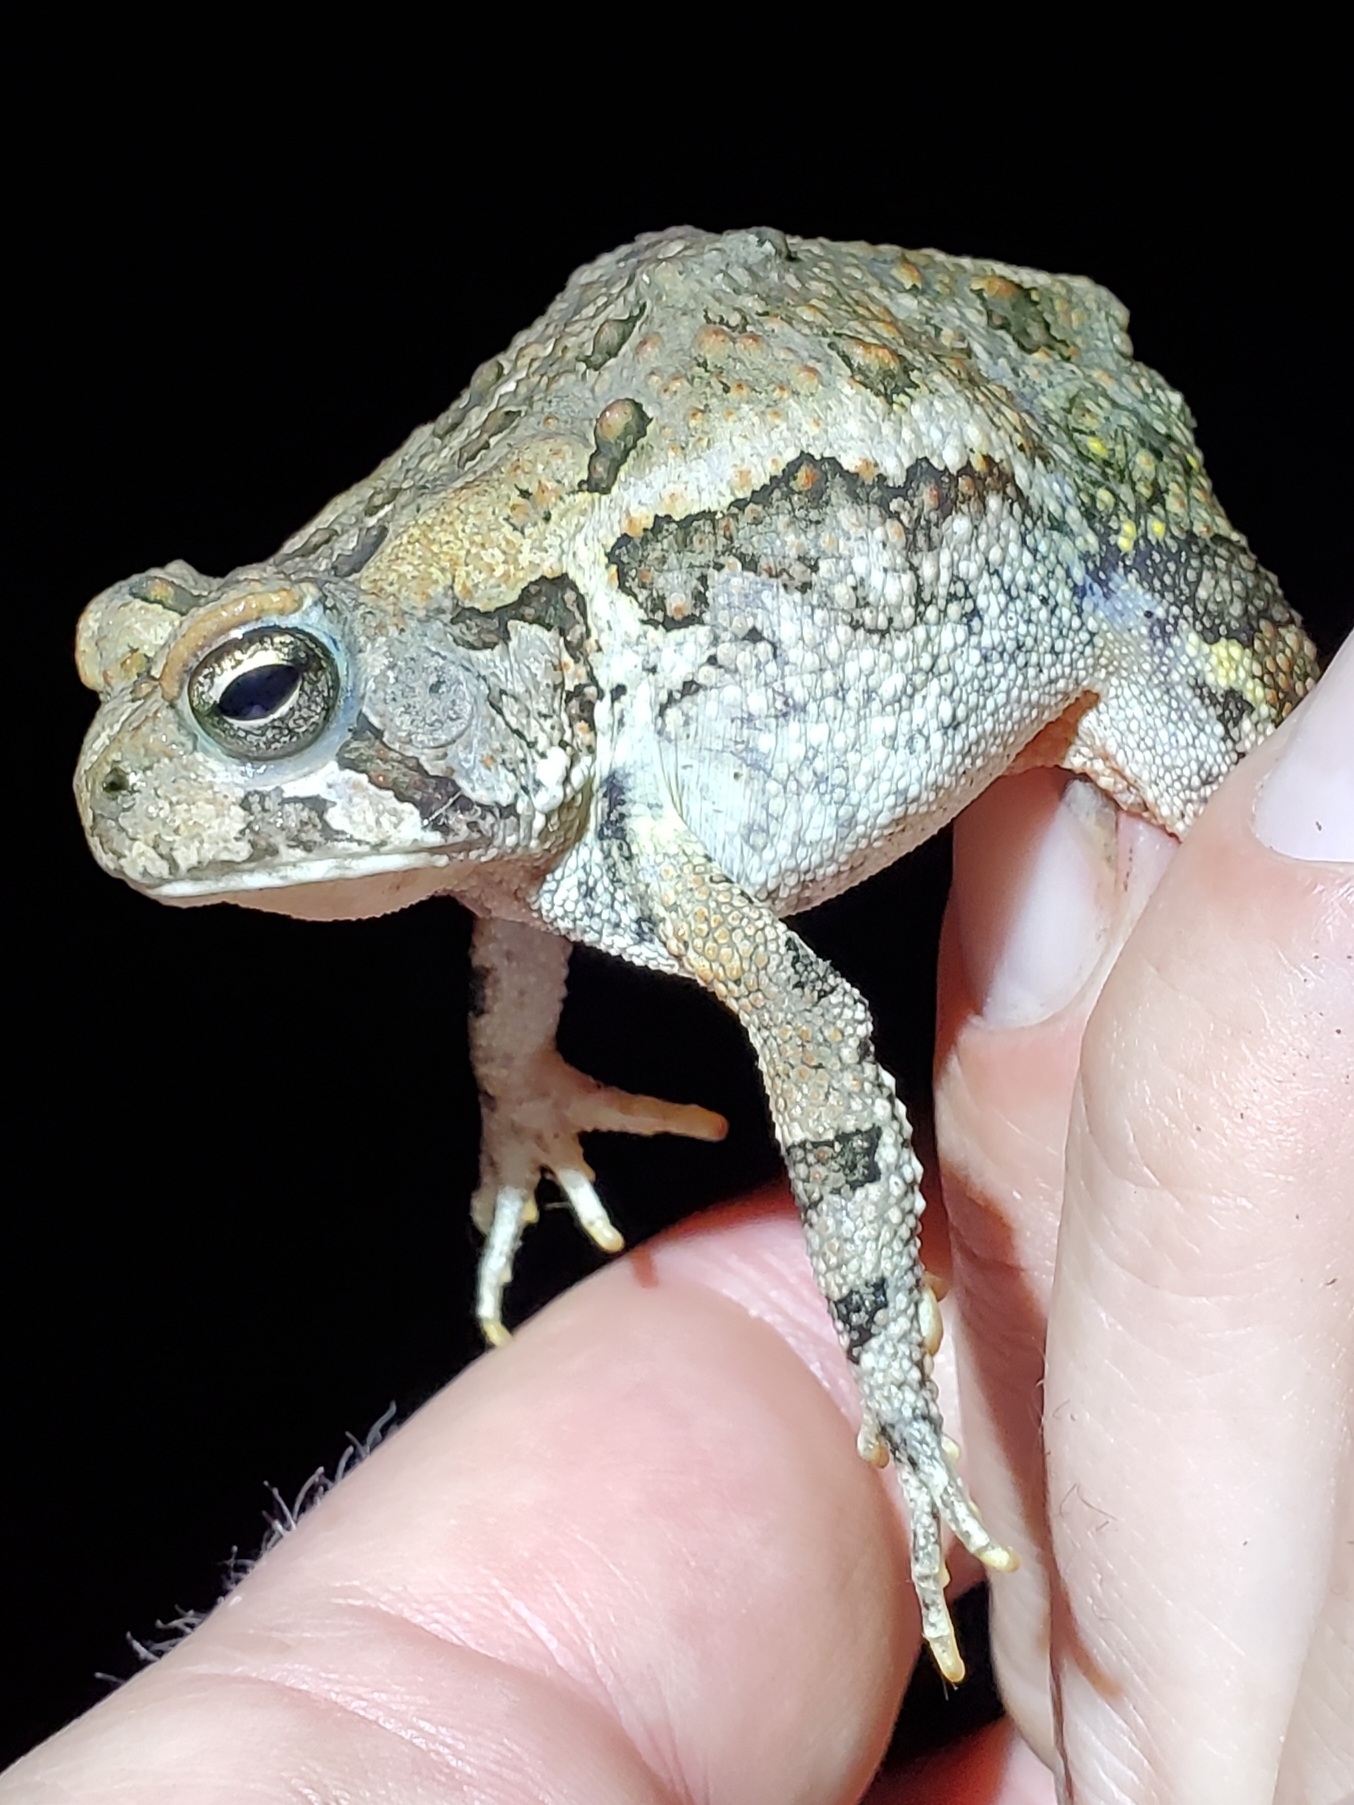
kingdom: Animalia
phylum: Chordata
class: Amphibia
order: Anura
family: Bufonidae
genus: Anaxyrus
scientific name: Anaxyrus fowleri
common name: Fowler's toad
